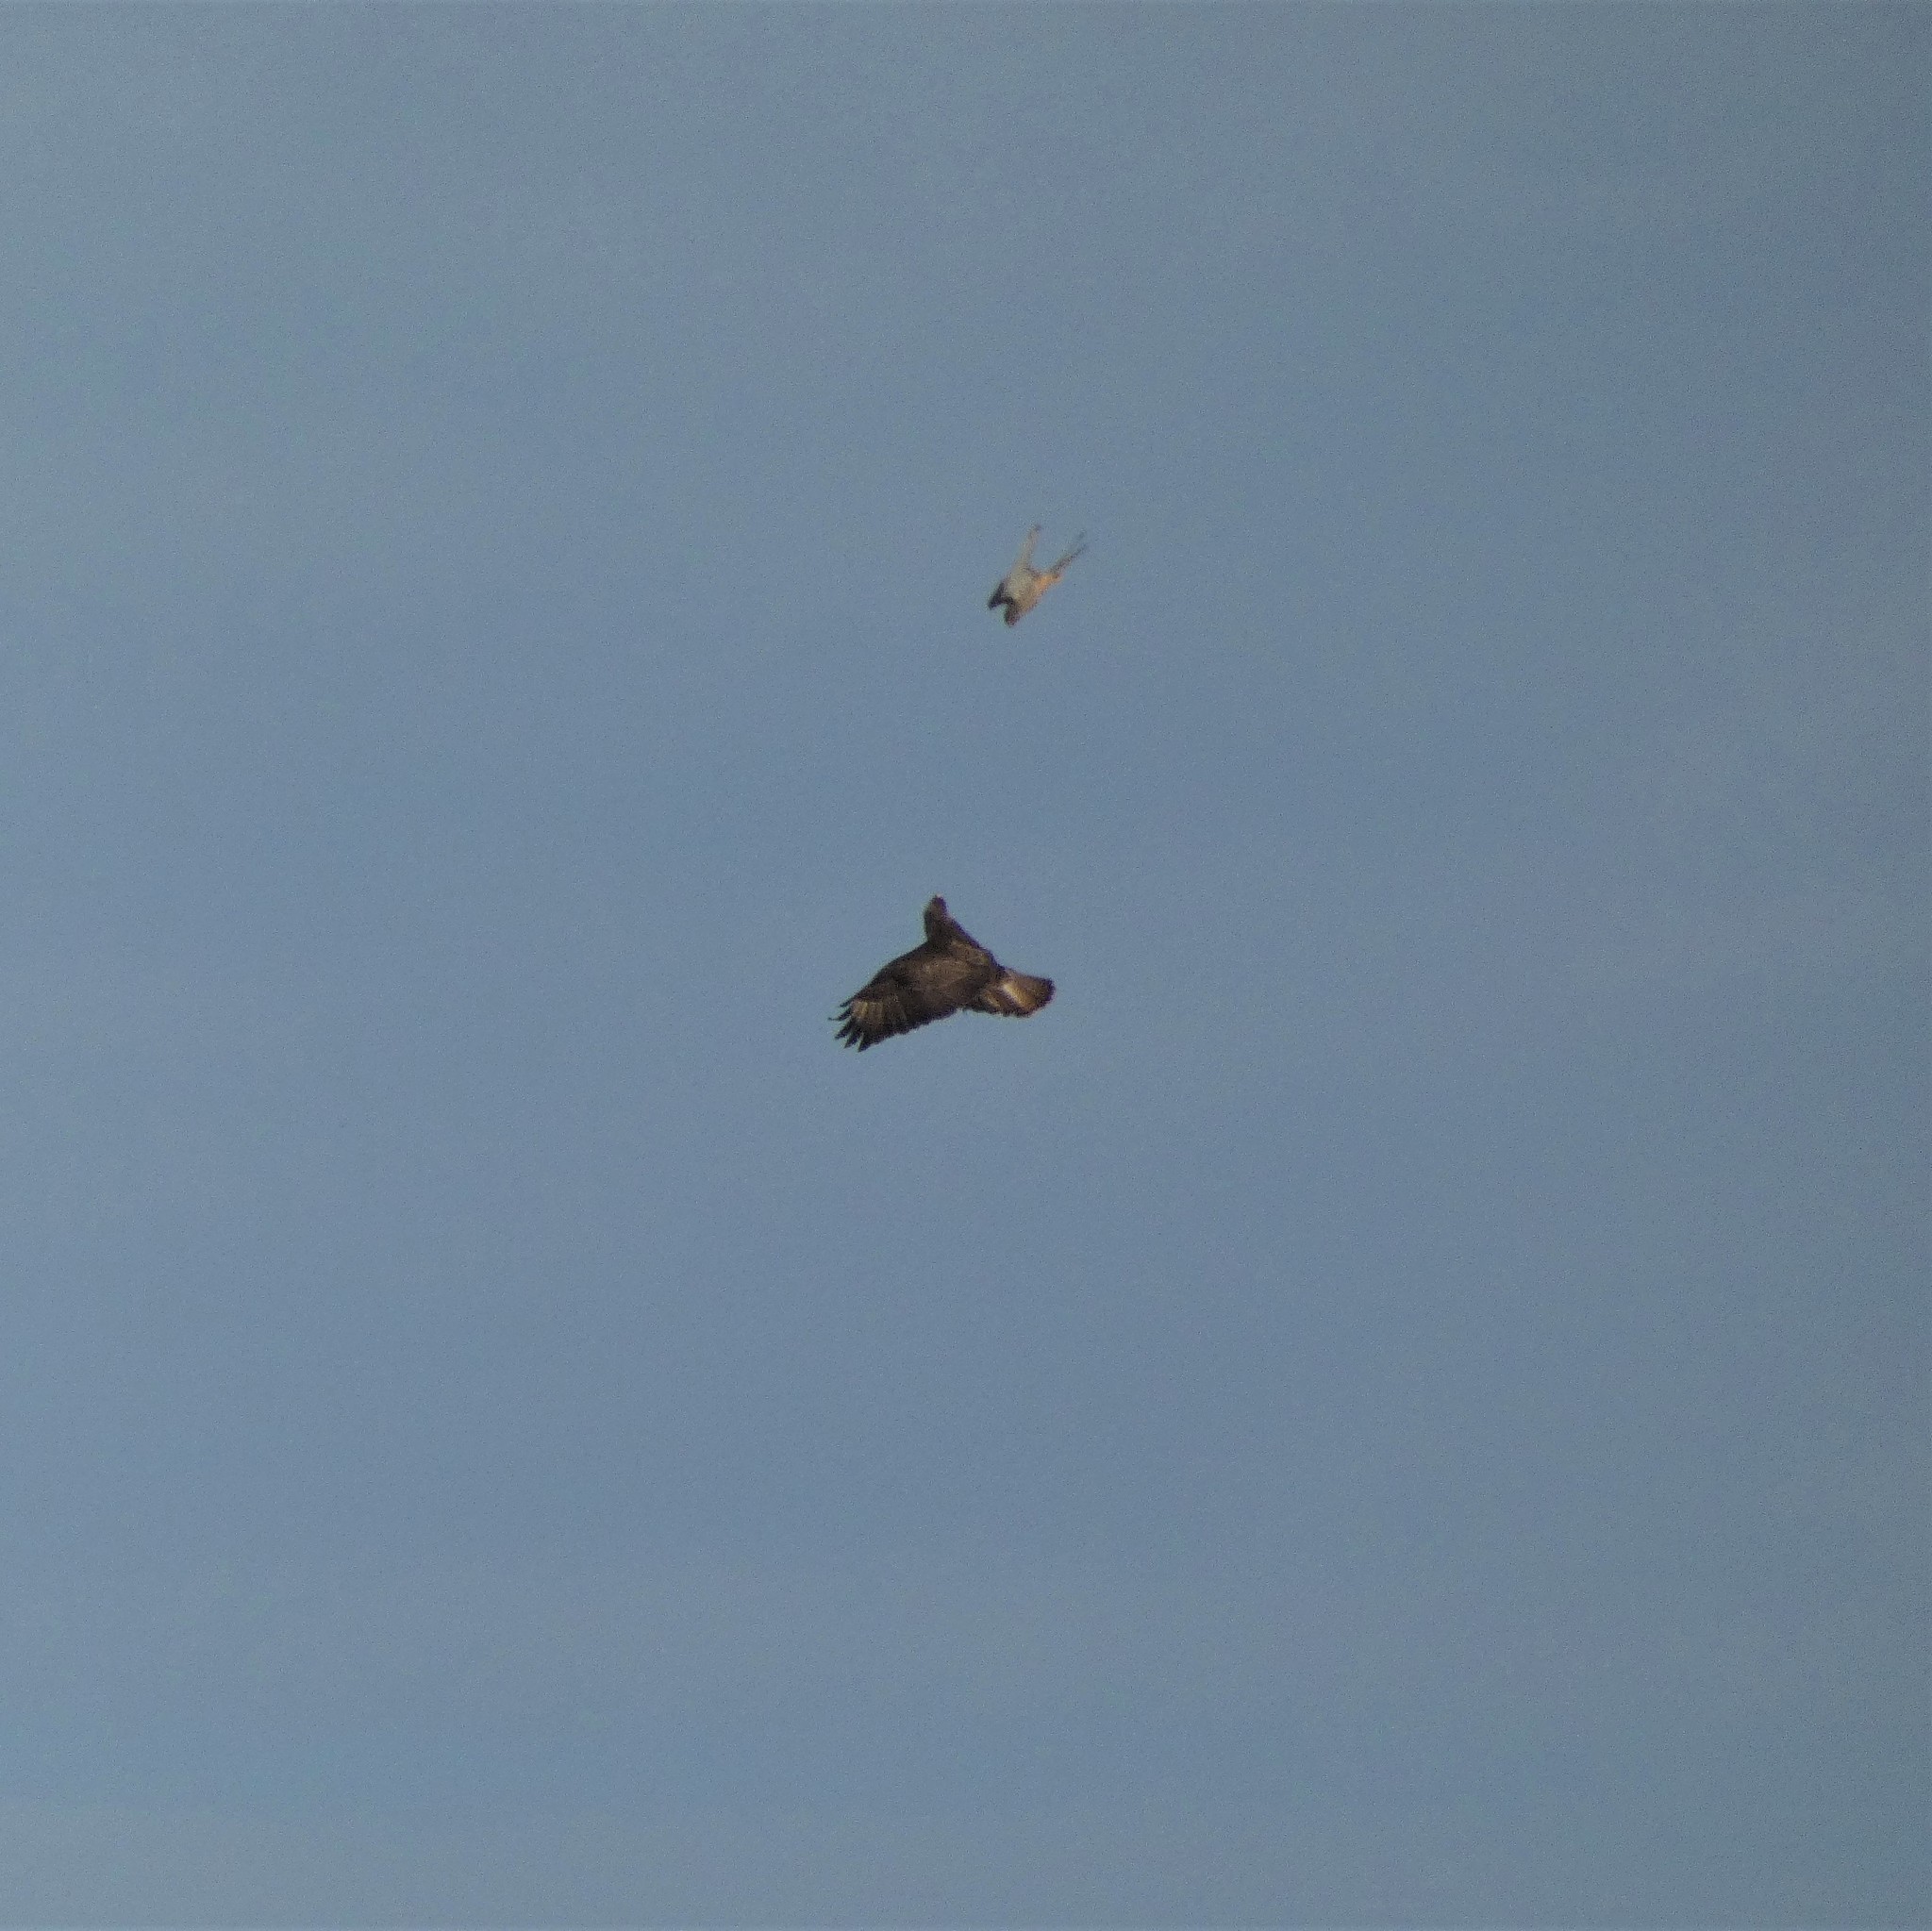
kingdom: Animalia
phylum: Chordata
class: Aves
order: Accipitriformes
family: Accipitridae
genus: Buteo
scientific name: Buteo buteo
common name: Common buzzard
